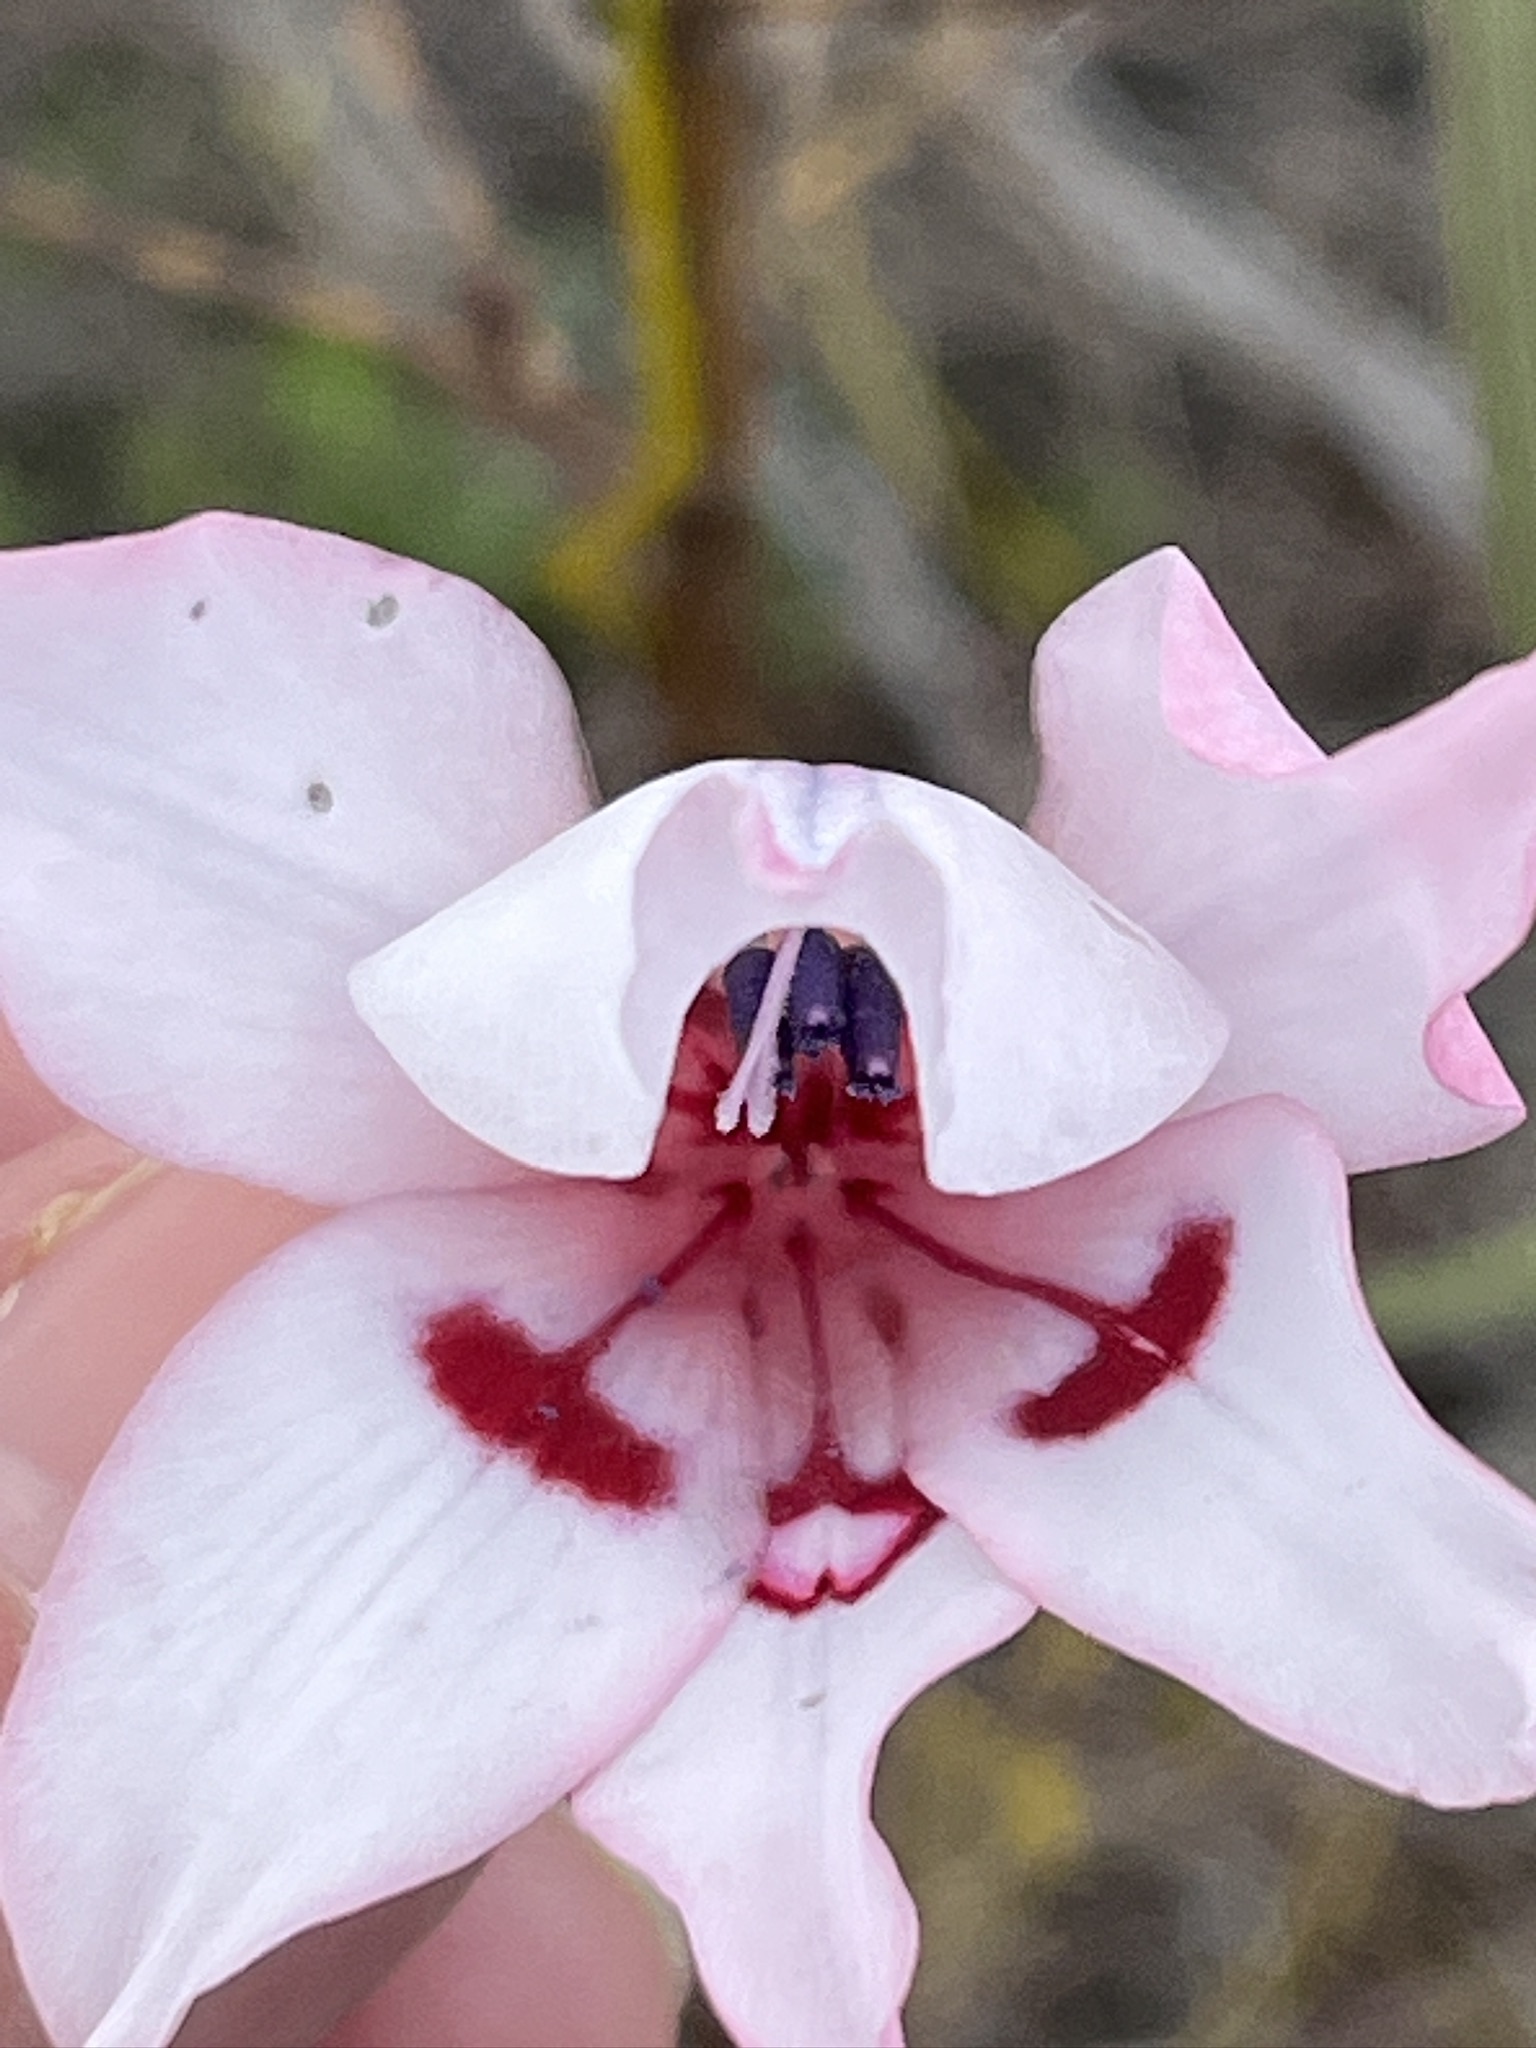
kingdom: Plantae
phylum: Tracheophyta
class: Liliopsida
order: Asparagales
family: Iridaceae
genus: Gladiolus
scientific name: Gladiolus carneus
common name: Painted-lady
